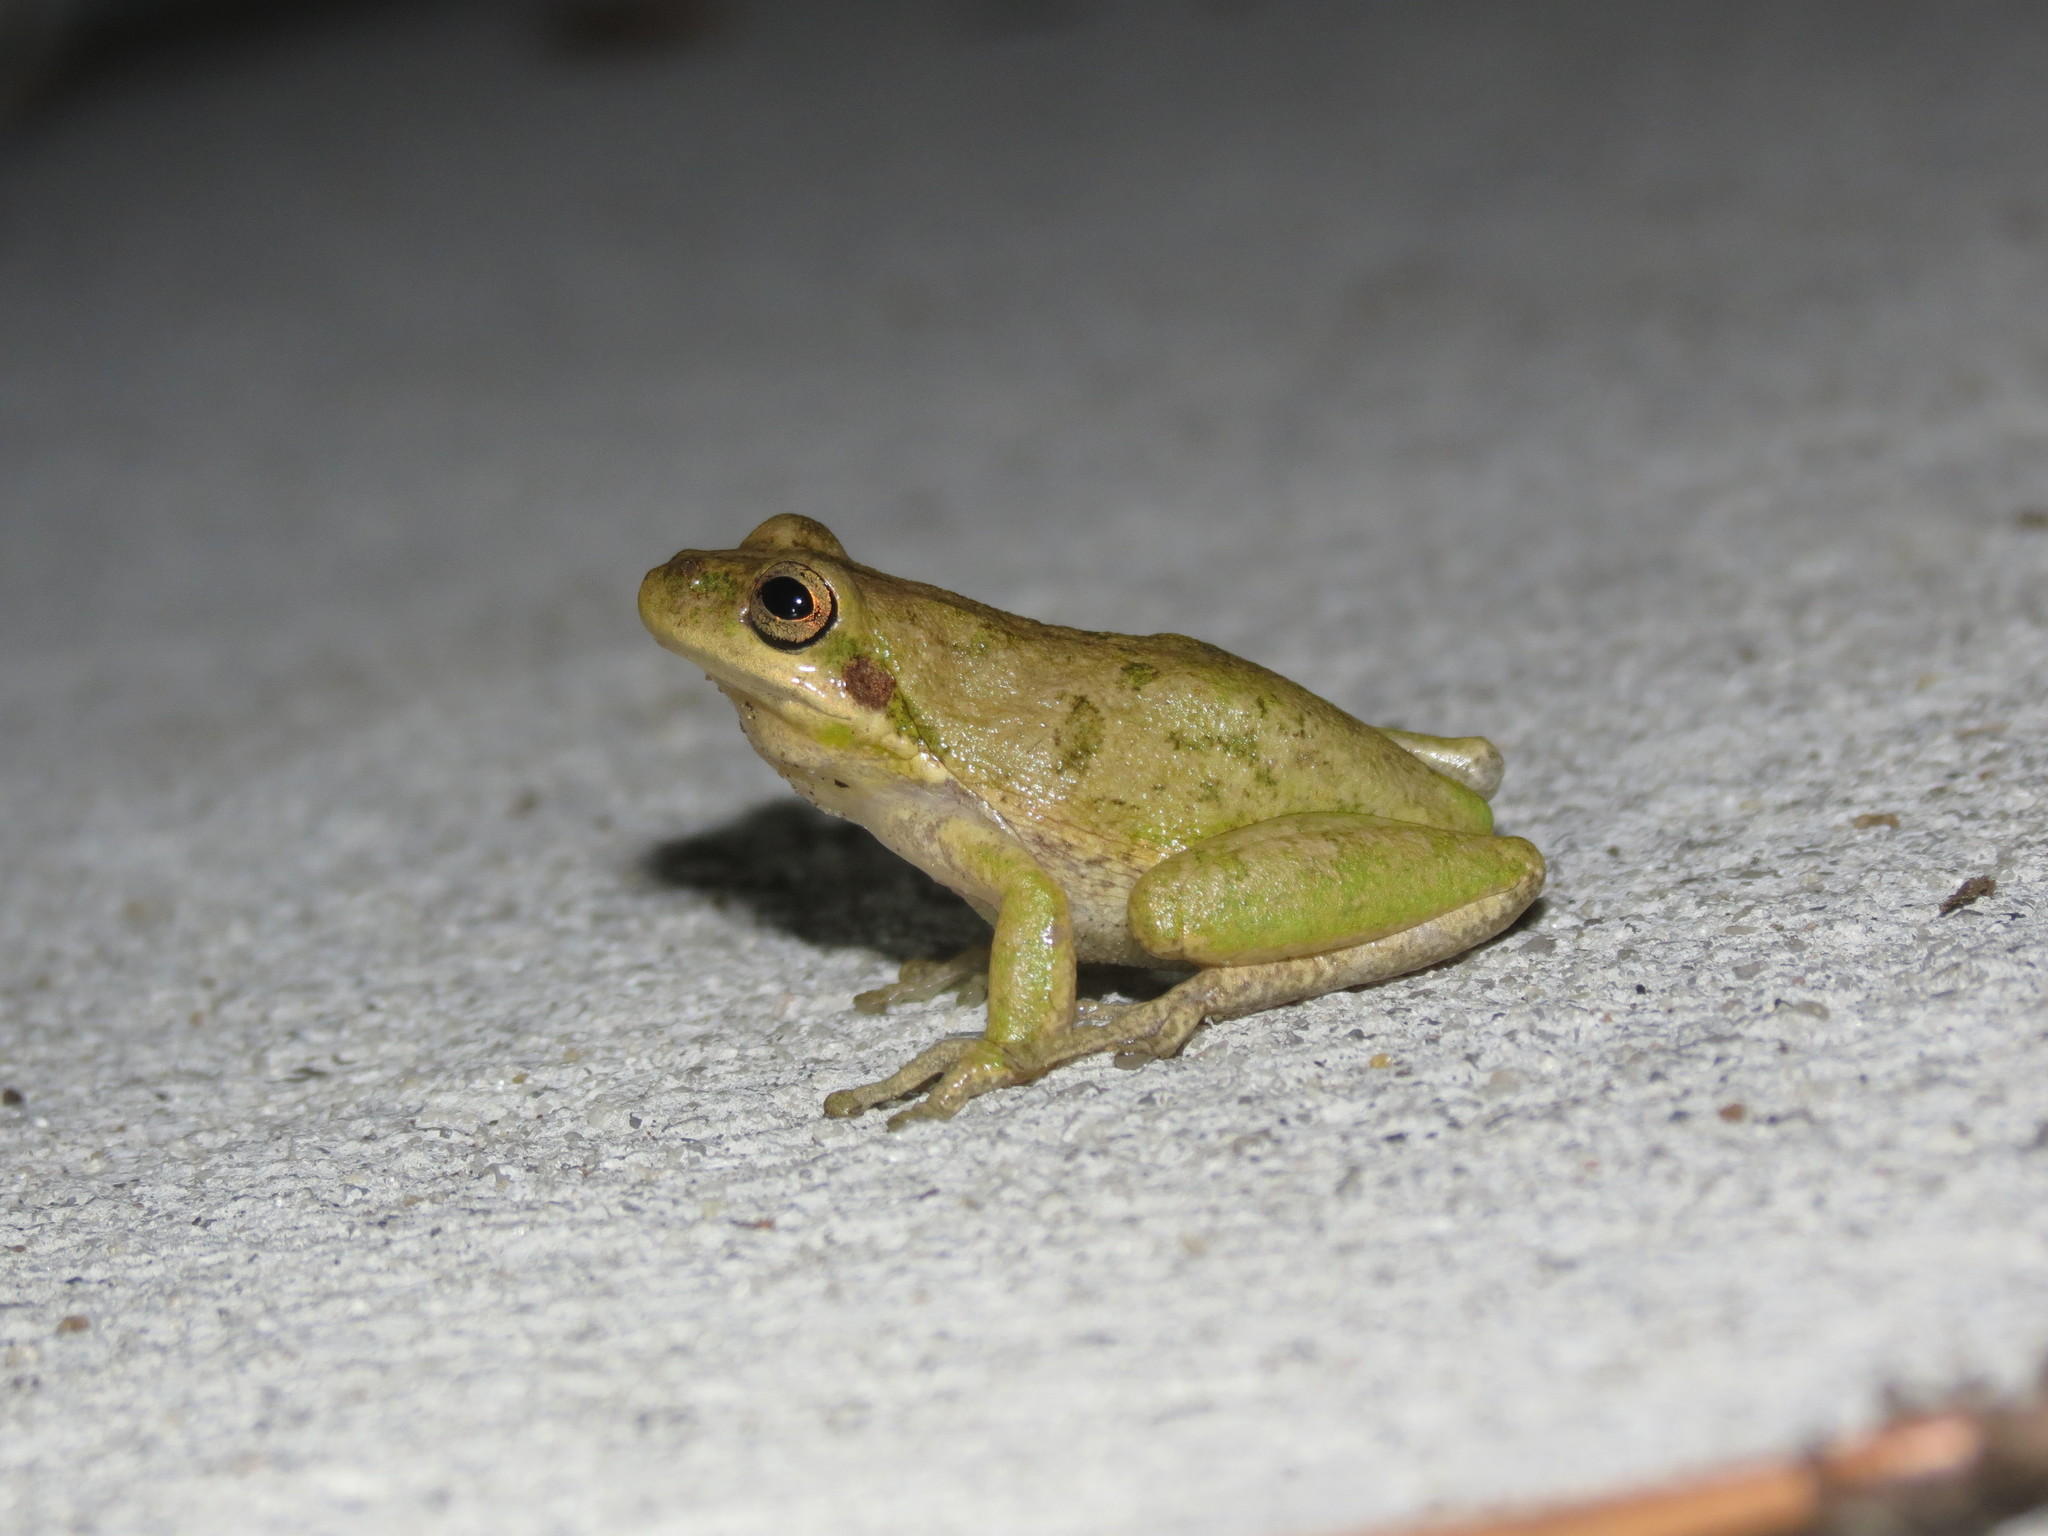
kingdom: Animalia
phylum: Chordata
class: Amphibia
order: Anura
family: Hylidae
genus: Dryophytes
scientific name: Dryophytes squirellus
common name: Squirrel treefrog
